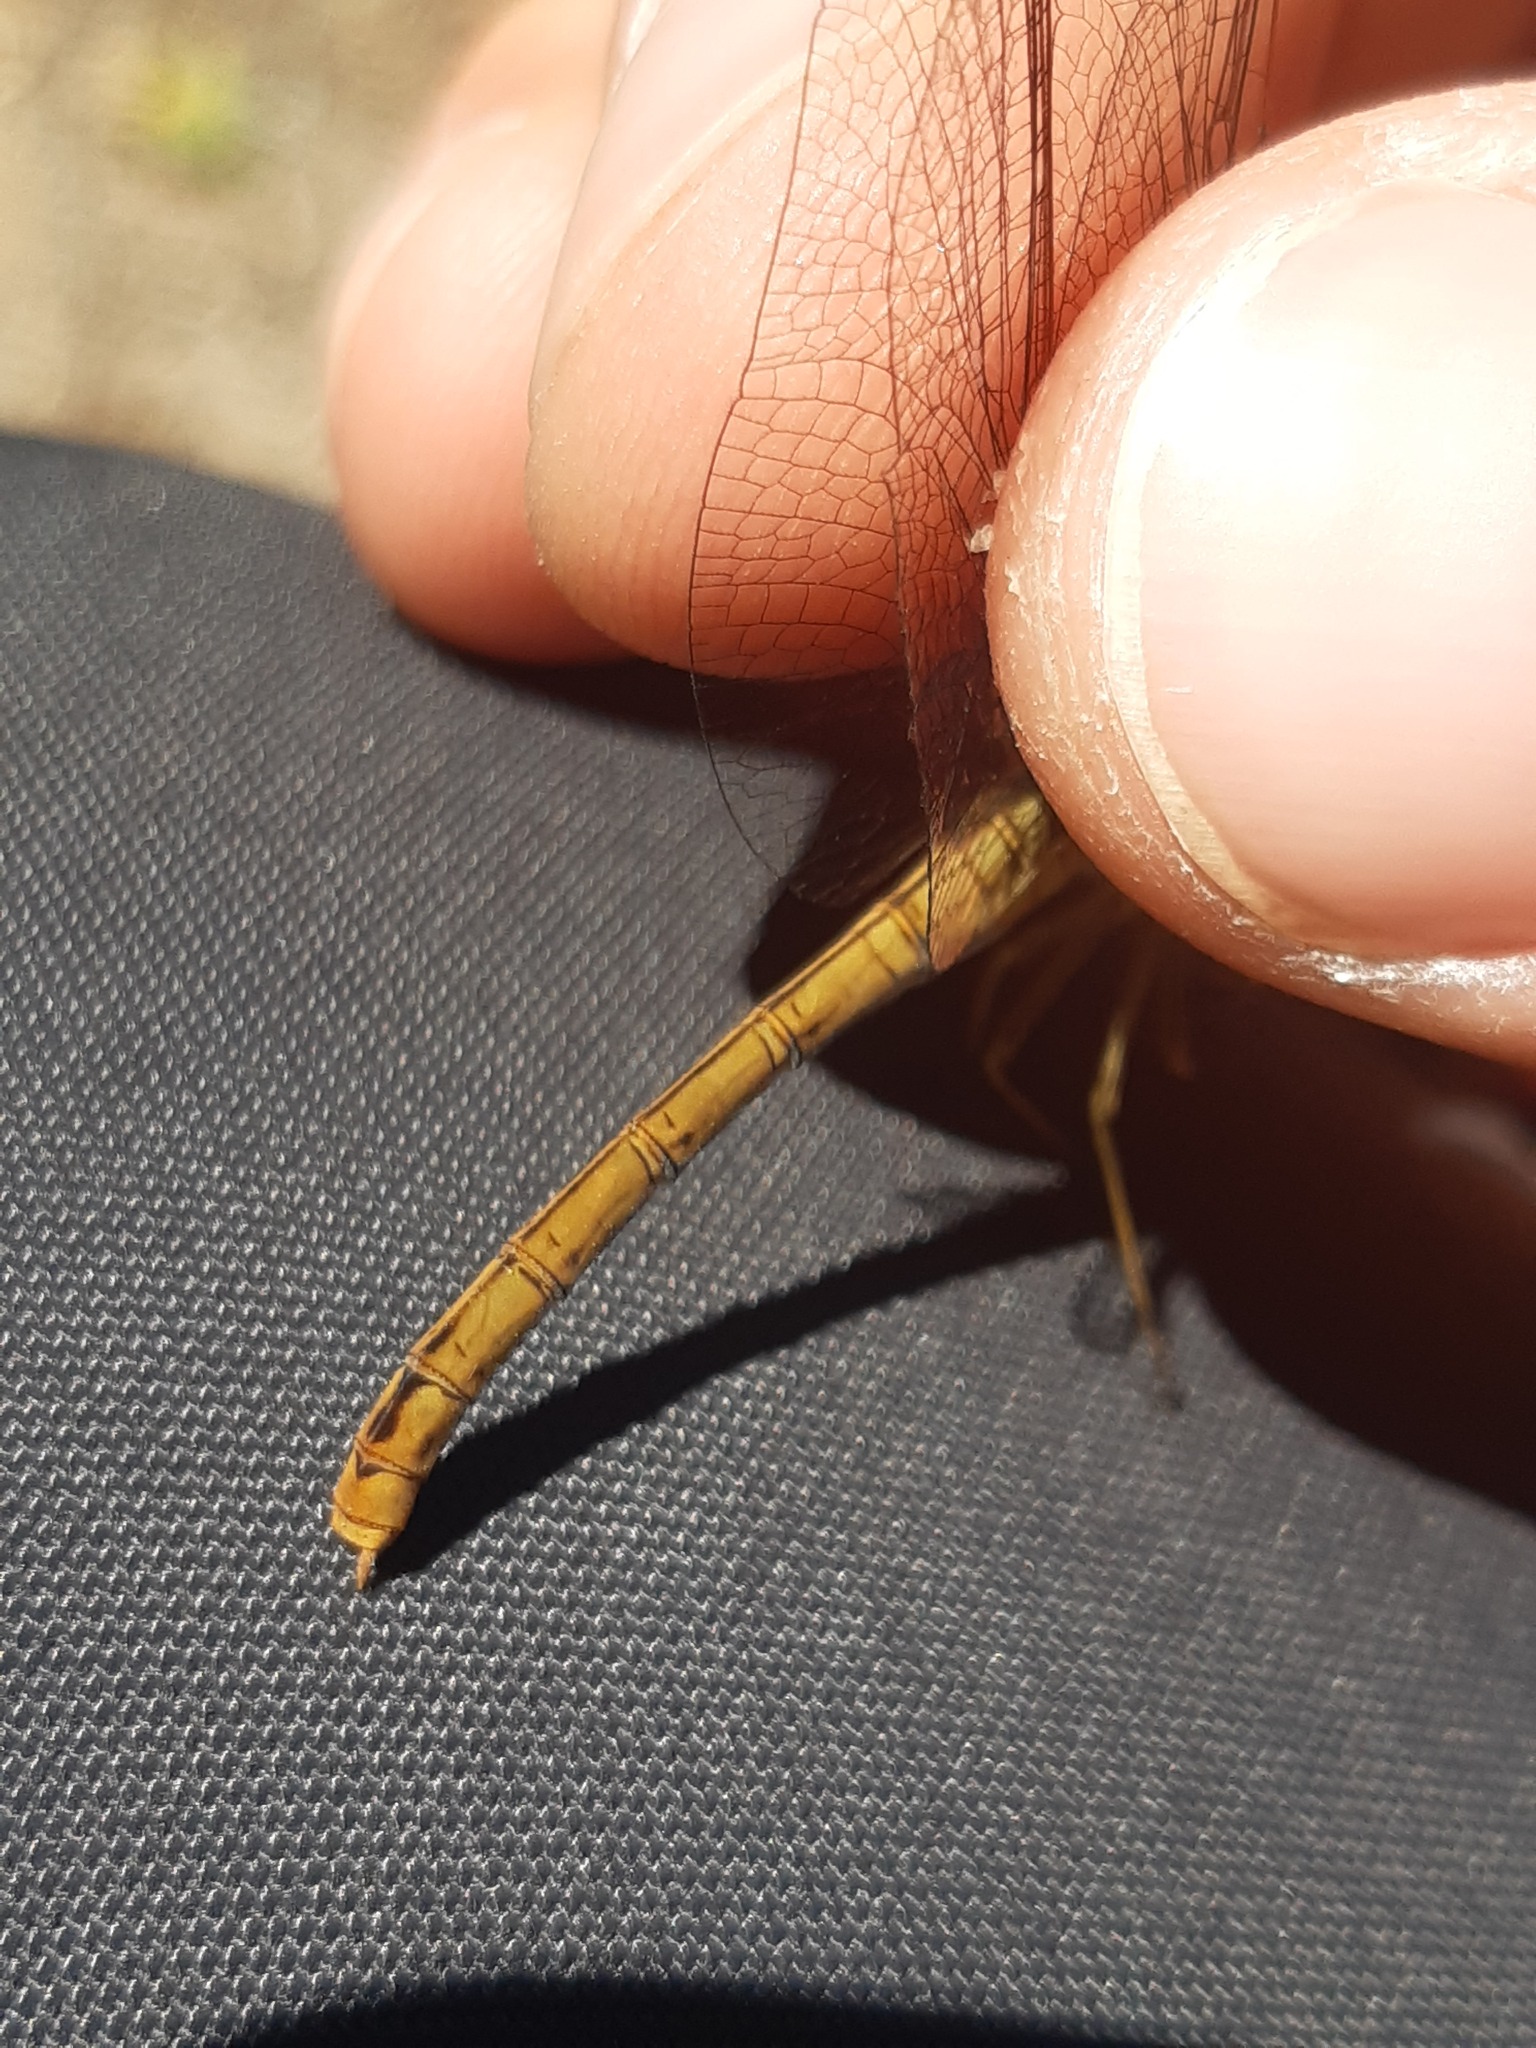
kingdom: Animalia
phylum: Arthropoda
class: Insecta
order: Odonata
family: Libellulidae
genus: Sympetrum
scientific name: Sympetrum meridionale
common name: Southern darter
